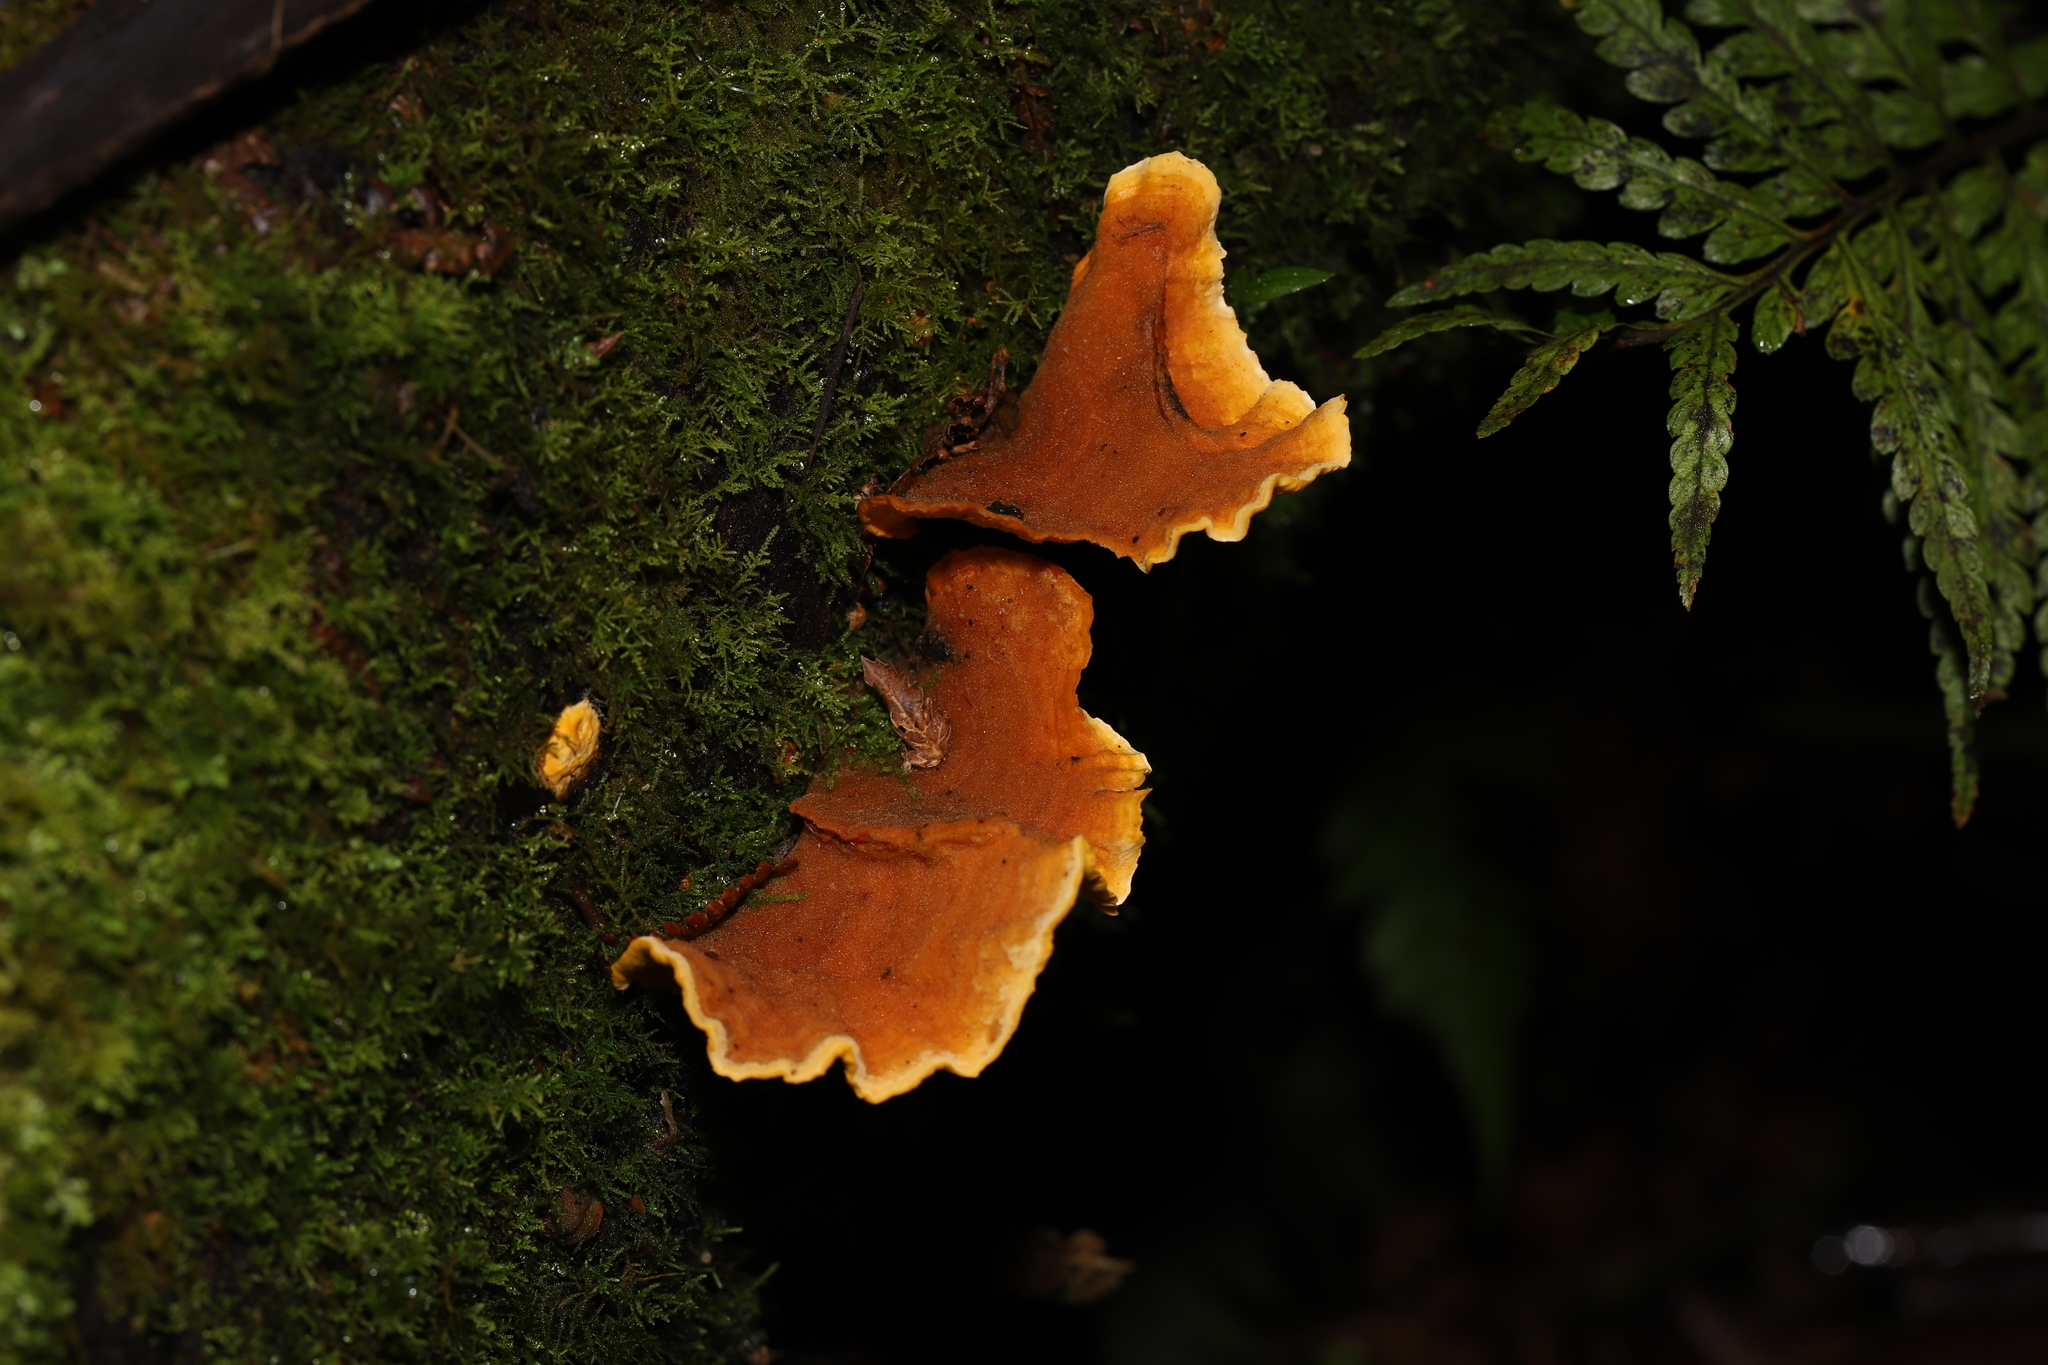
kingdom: Fungi
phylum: Basidiomycota
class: Agaricomycetes
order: Russulales
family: Stereaceae
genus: Stereum
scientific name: Stereum versicolor
